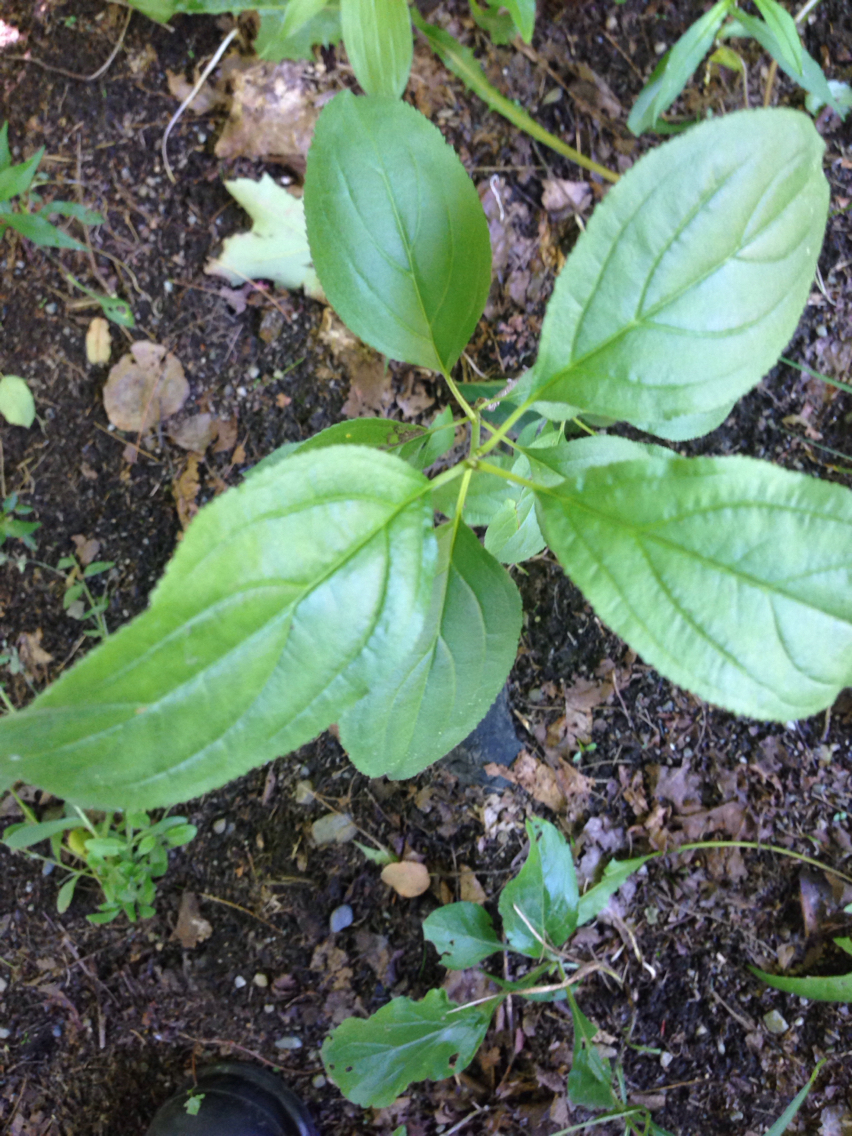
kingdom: Plantae
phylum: Tracheophyta
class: Magnoliopsida
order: Rosales
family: Rhamnaceae
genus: Rhamnus
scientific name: Rhamnus cathartica
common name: Common buckthorn
